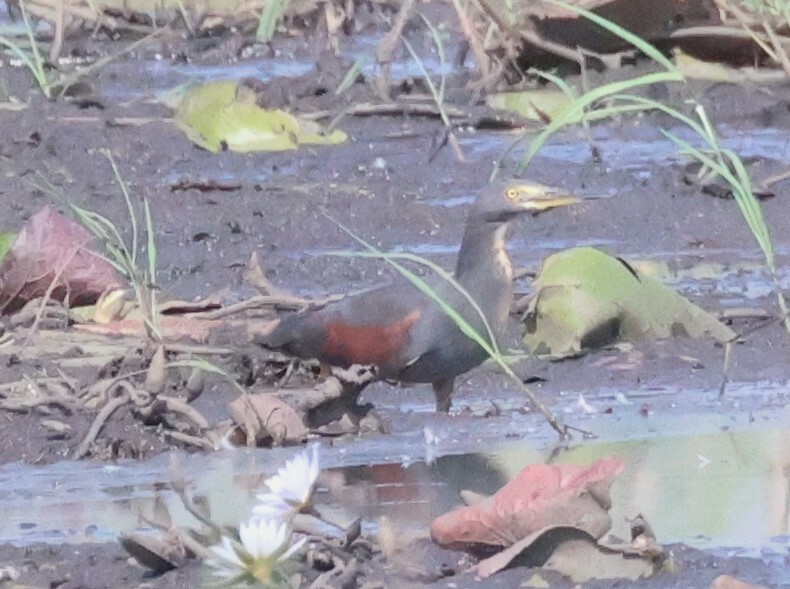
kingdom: Animalia
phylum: Chordata
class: Aves
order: Pelecaniformes
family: Ardeidae
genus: Ardeola
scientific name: Ardeola rufiventris
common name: Rufous-bellied heron
